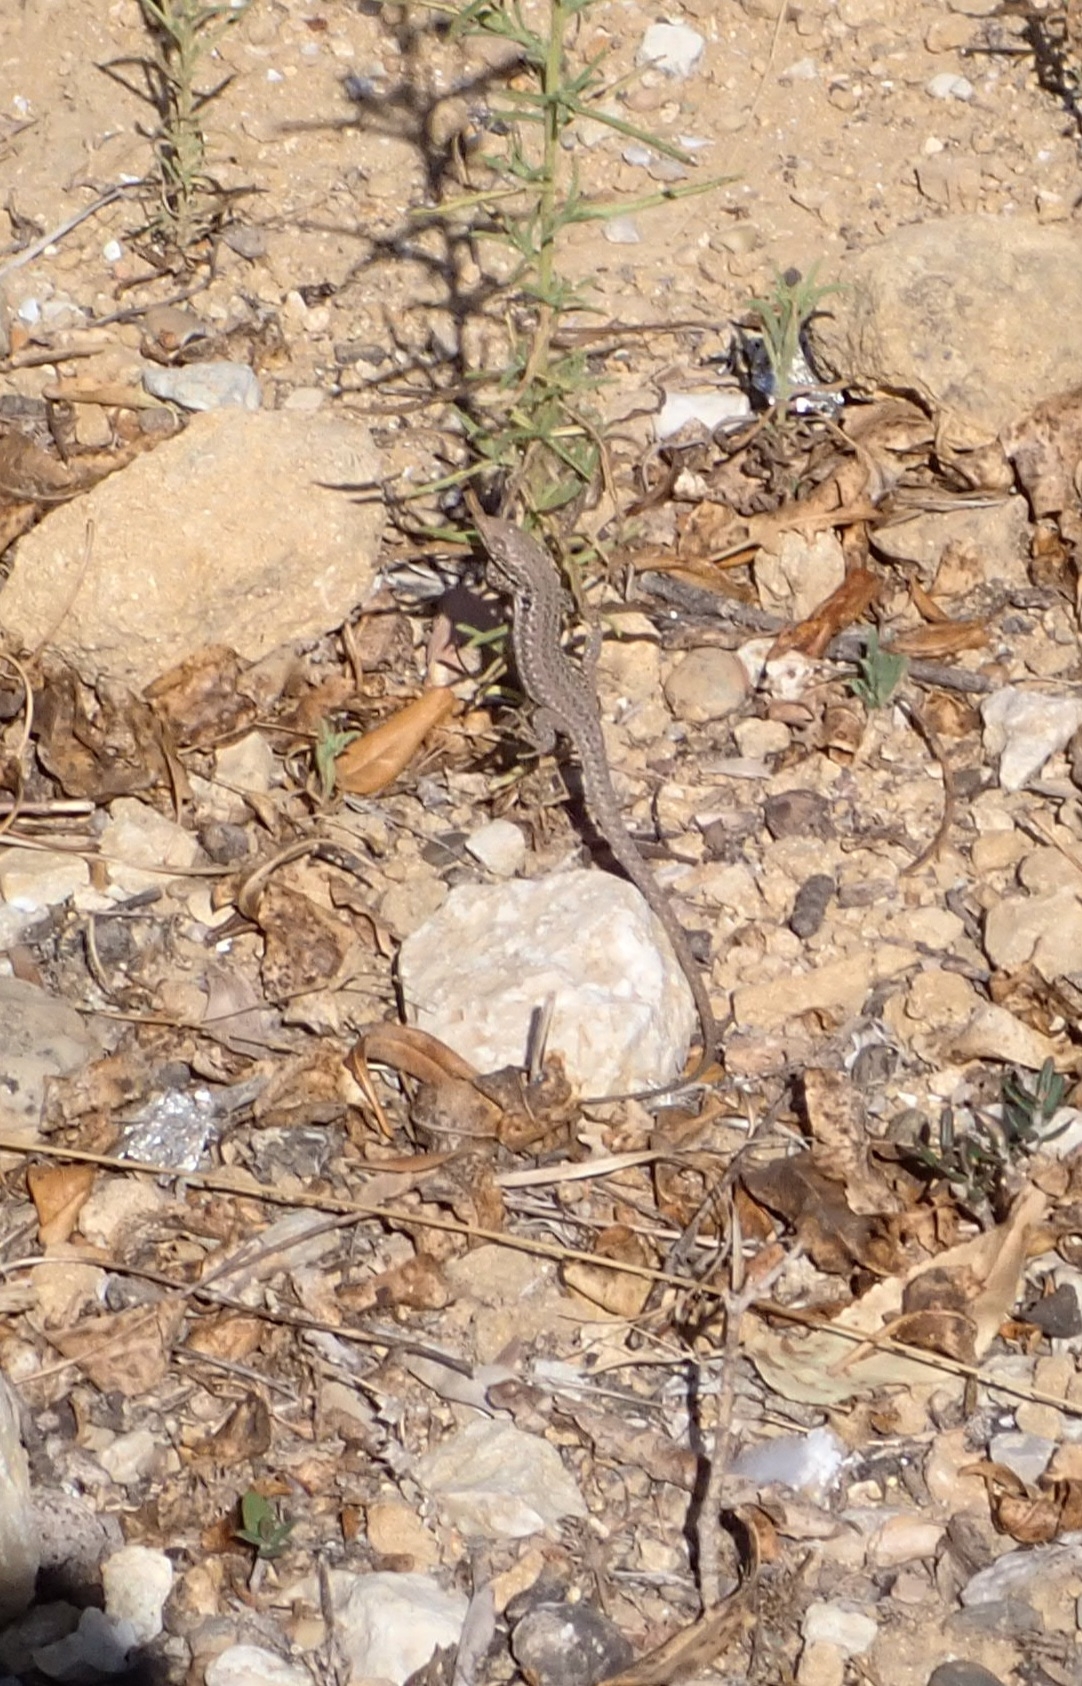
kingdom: Animalia
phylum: Chordata
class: Squamata
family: Lacertidae
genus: Podarcis
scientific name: Podarcis siculus
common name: Italian wall lizard
